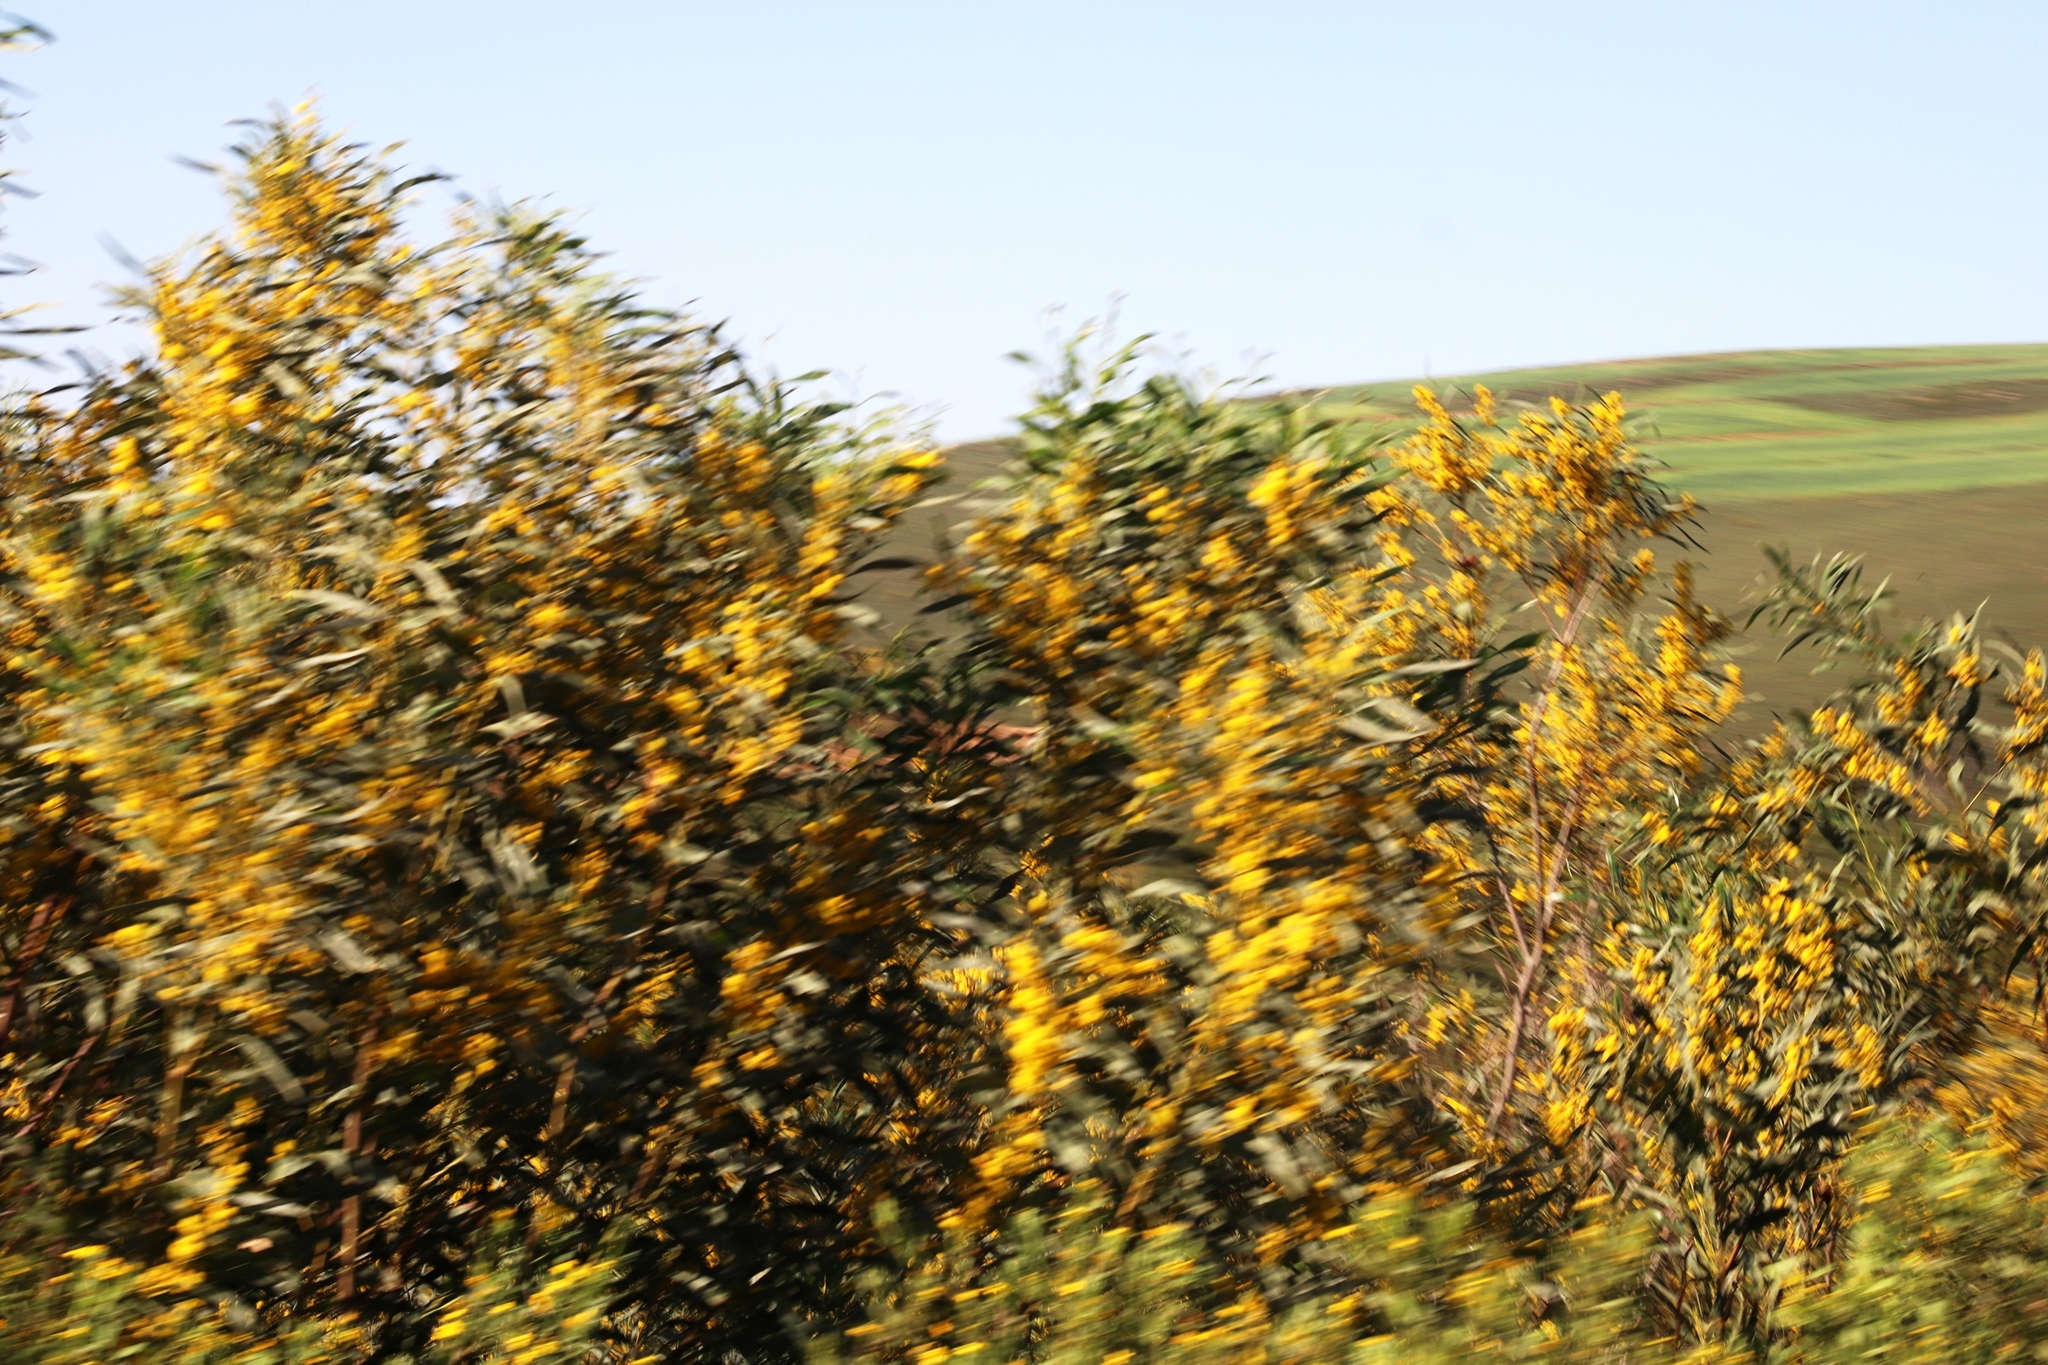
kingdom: Plantae
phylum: Tracheophyta
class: Magnoliopsida
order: Fabales
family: Fabaceae
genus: Acacia
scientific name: Acacia pycnantha
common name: Golden wattle
